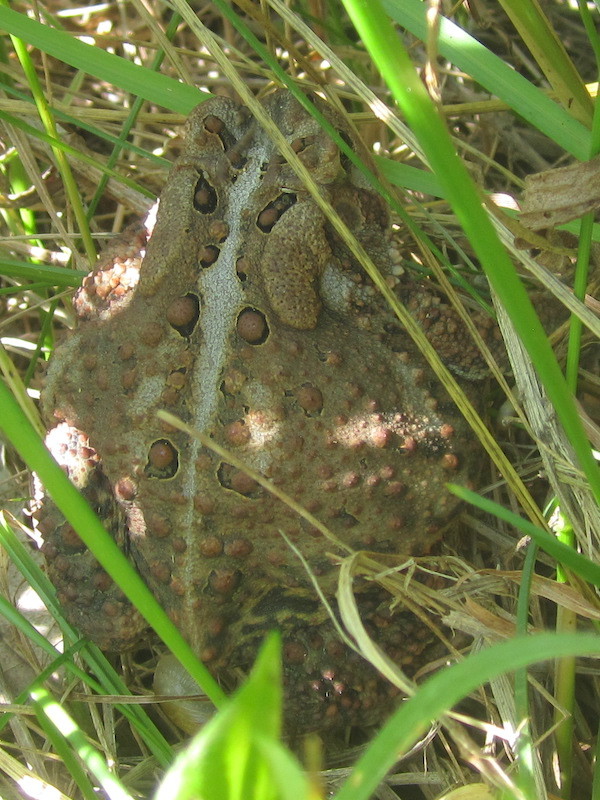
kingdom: Animalia
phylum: Chordata
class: Amphibia
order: Anura
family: Bufonidae
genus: Anaxyrus
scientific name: Anaxyrus americanus
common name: American toad
